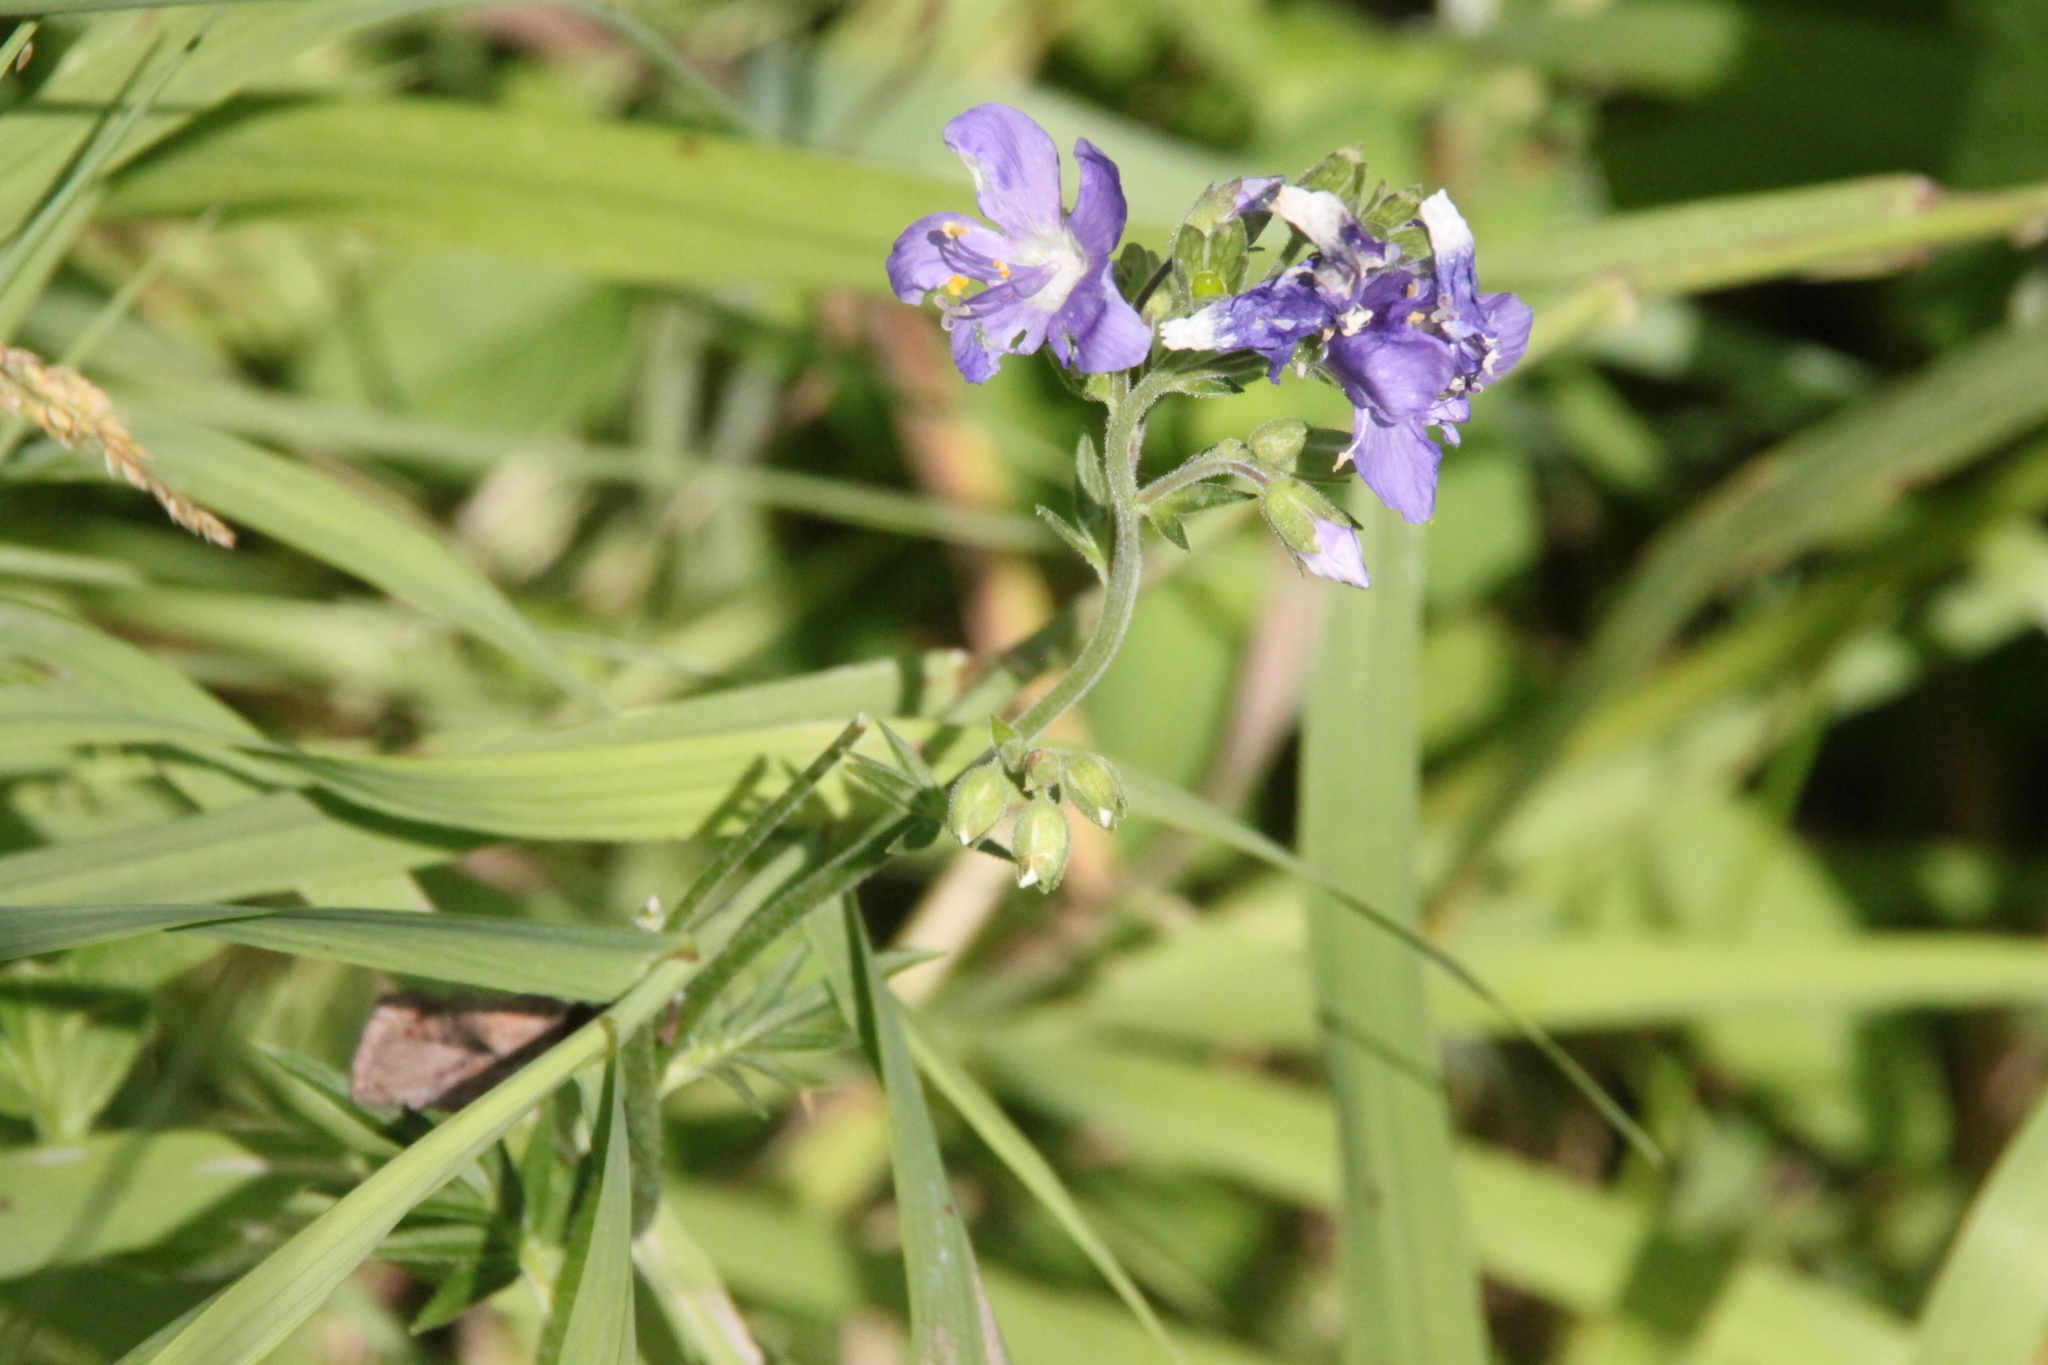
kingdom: Plantae
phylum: Tracheophyta
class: Magnoliopsida
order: Ericales
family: Polemoniaceae
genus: Polemonium
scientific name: Polemonium caeruleum
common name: Jacob's-ladder
